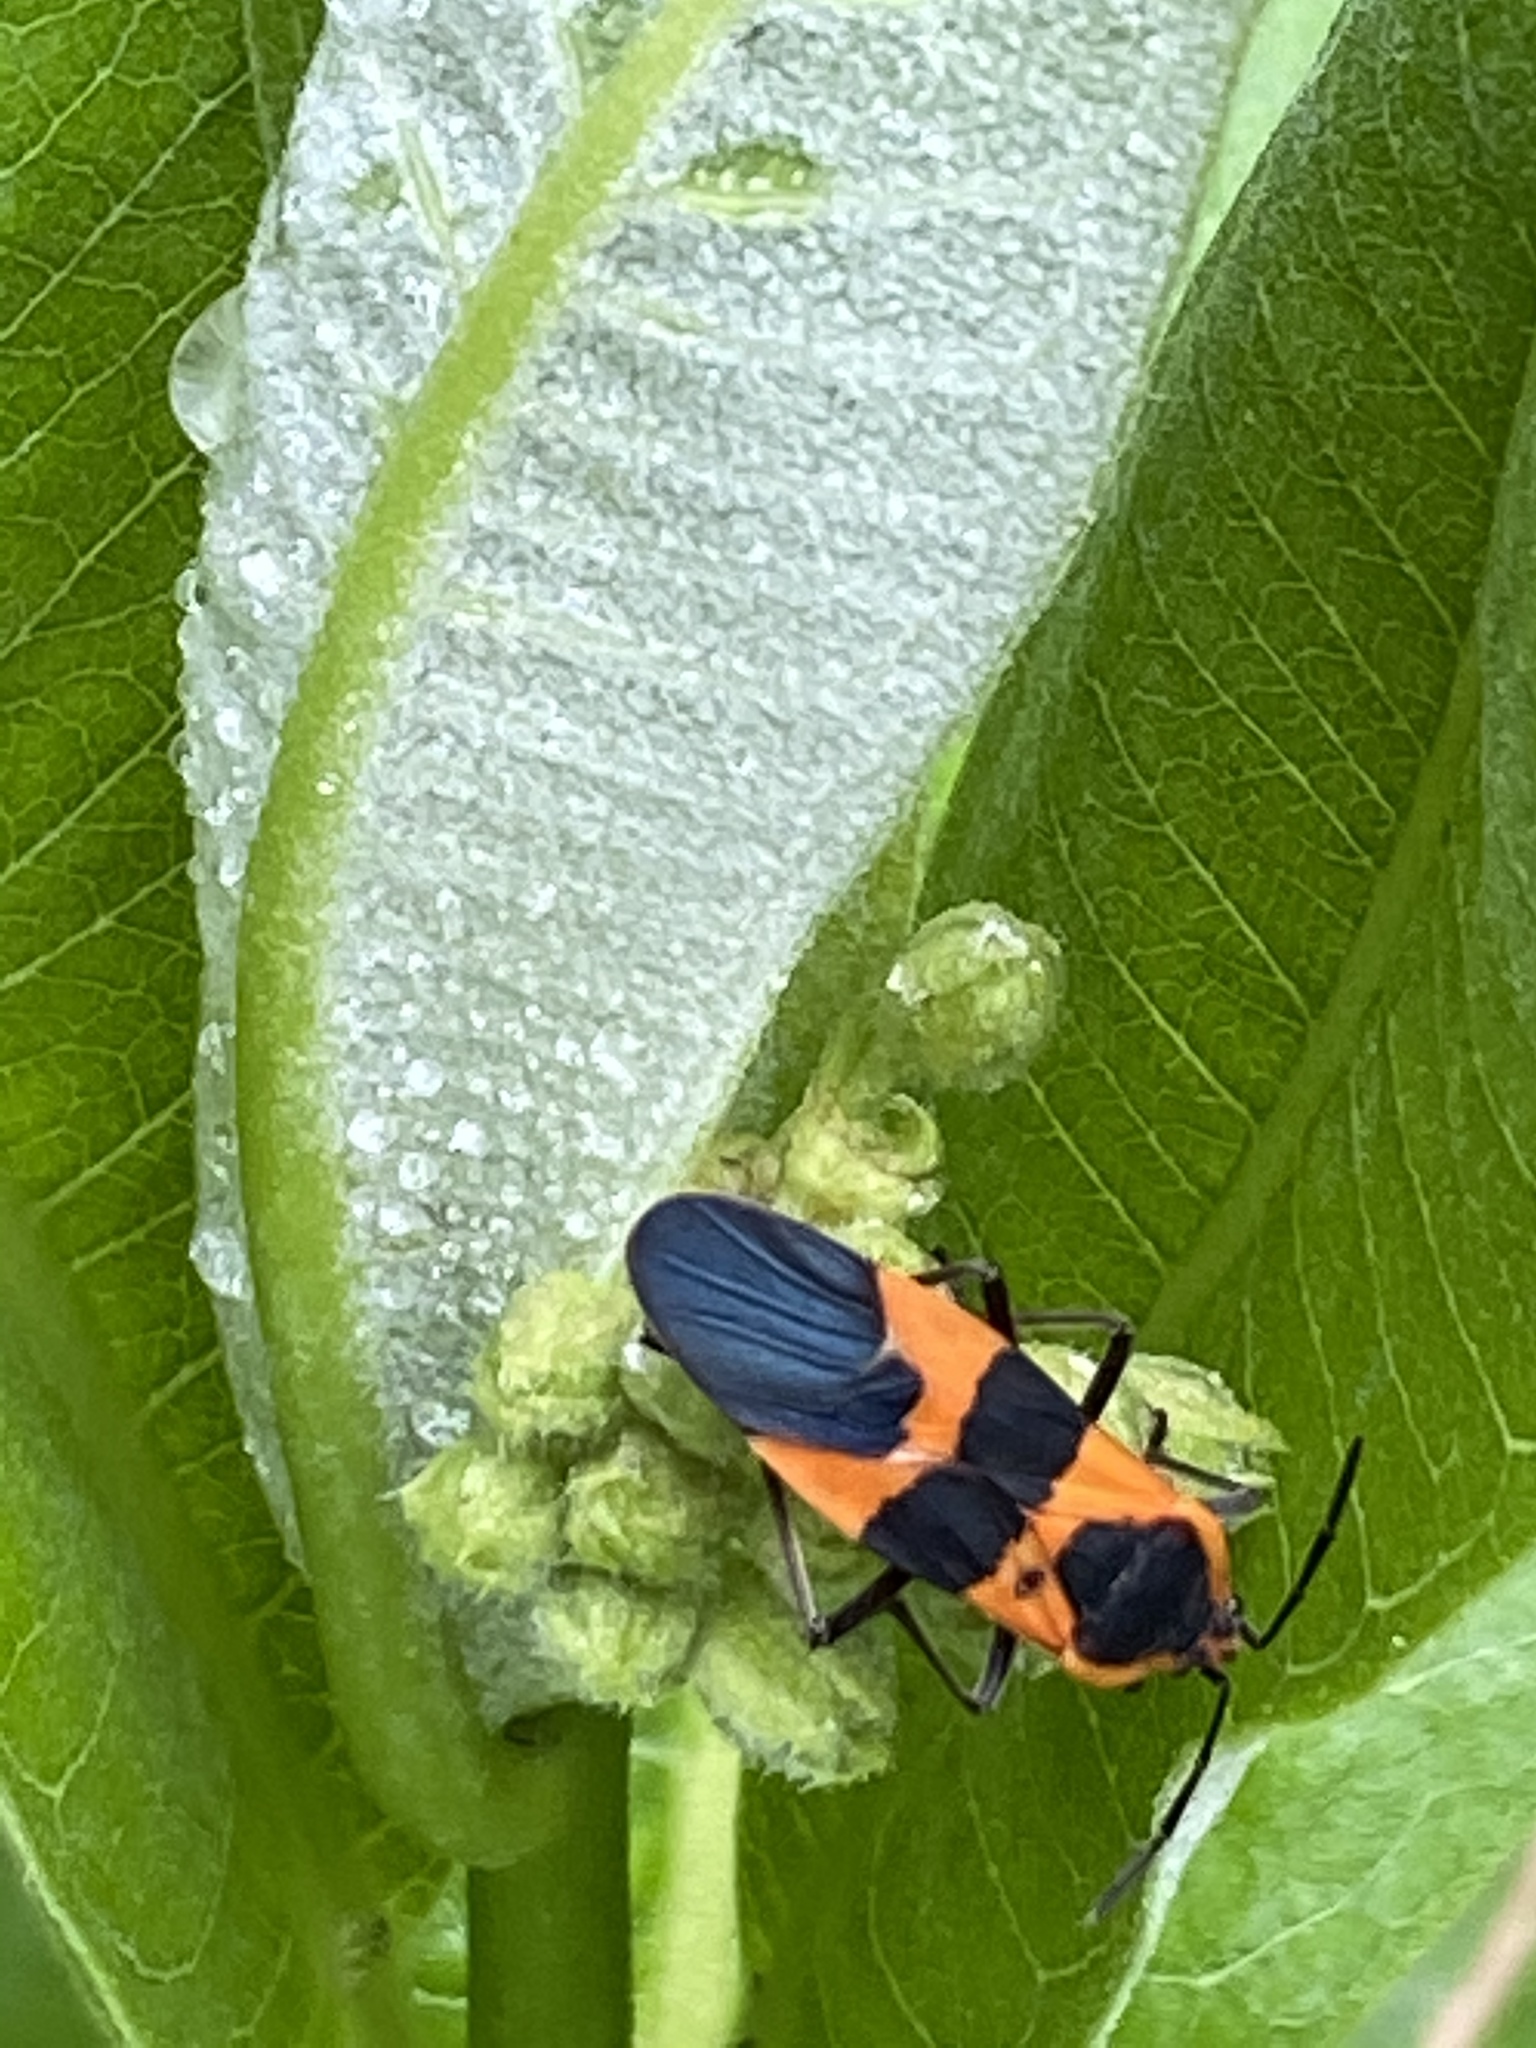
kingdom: Animalia
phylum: Arthropoda
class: Insecta
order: Hemiptera
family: Lygaeidae
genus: Oncopeltus
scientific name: Oncopeltus fasciatus
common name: Large milkweed bug
